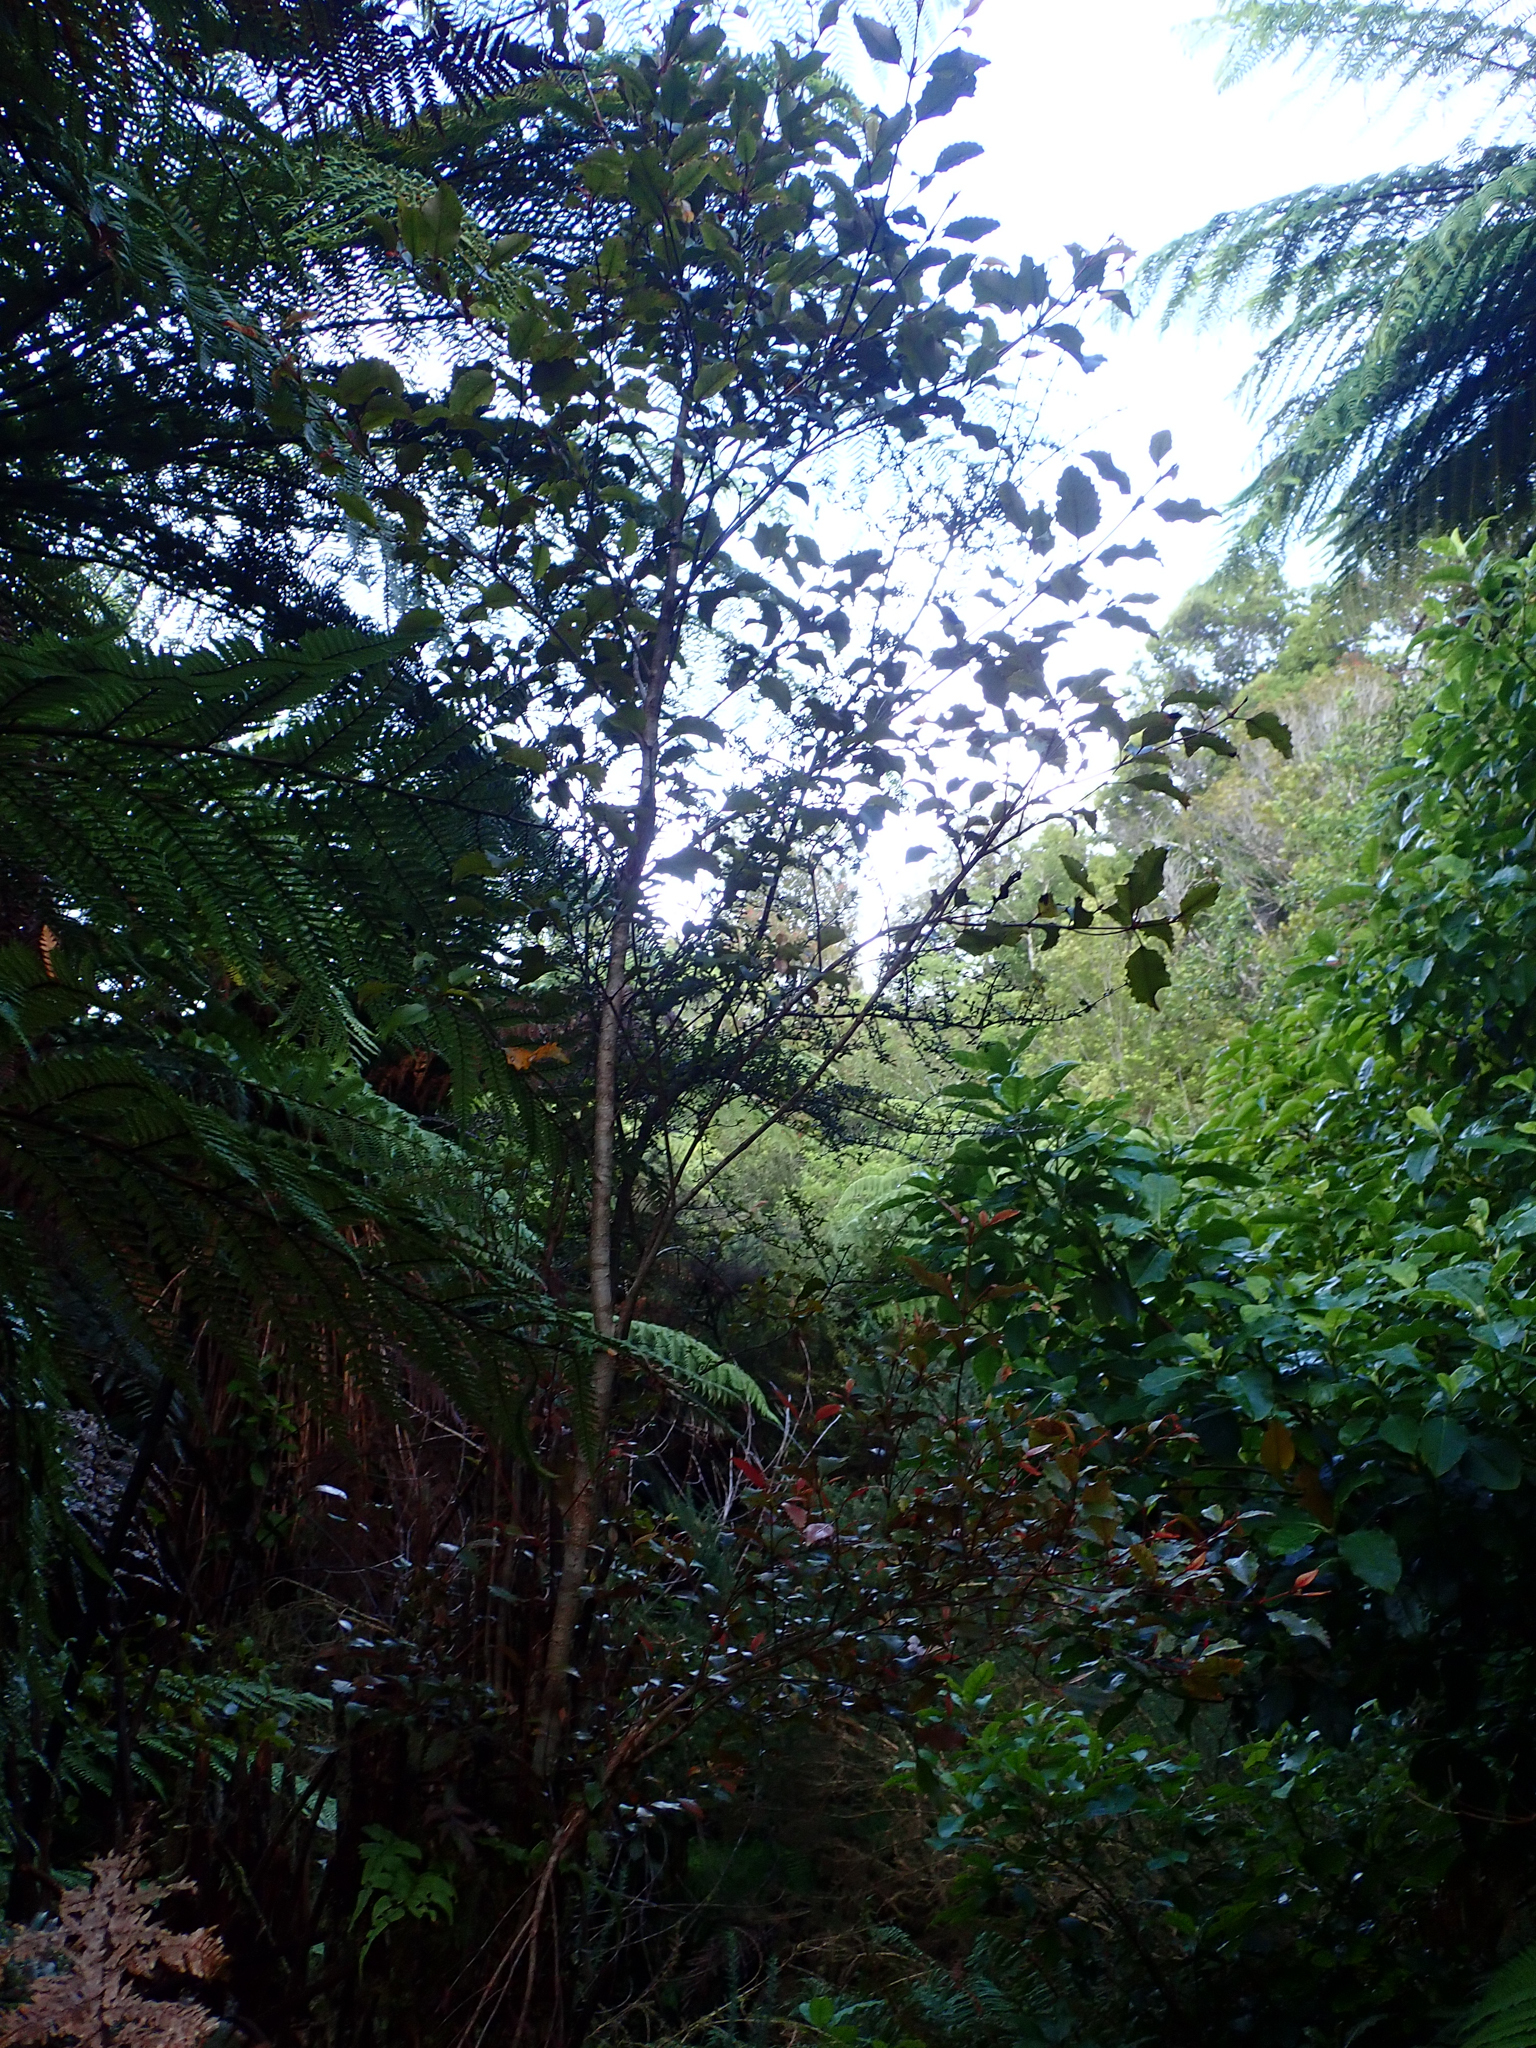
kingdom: Plantae
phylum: Tracheophyta
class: Magnoliopsida
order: Oxalidales
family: Cunoniaceae
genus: Pterophylla
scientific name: Pterophylla racemosa
